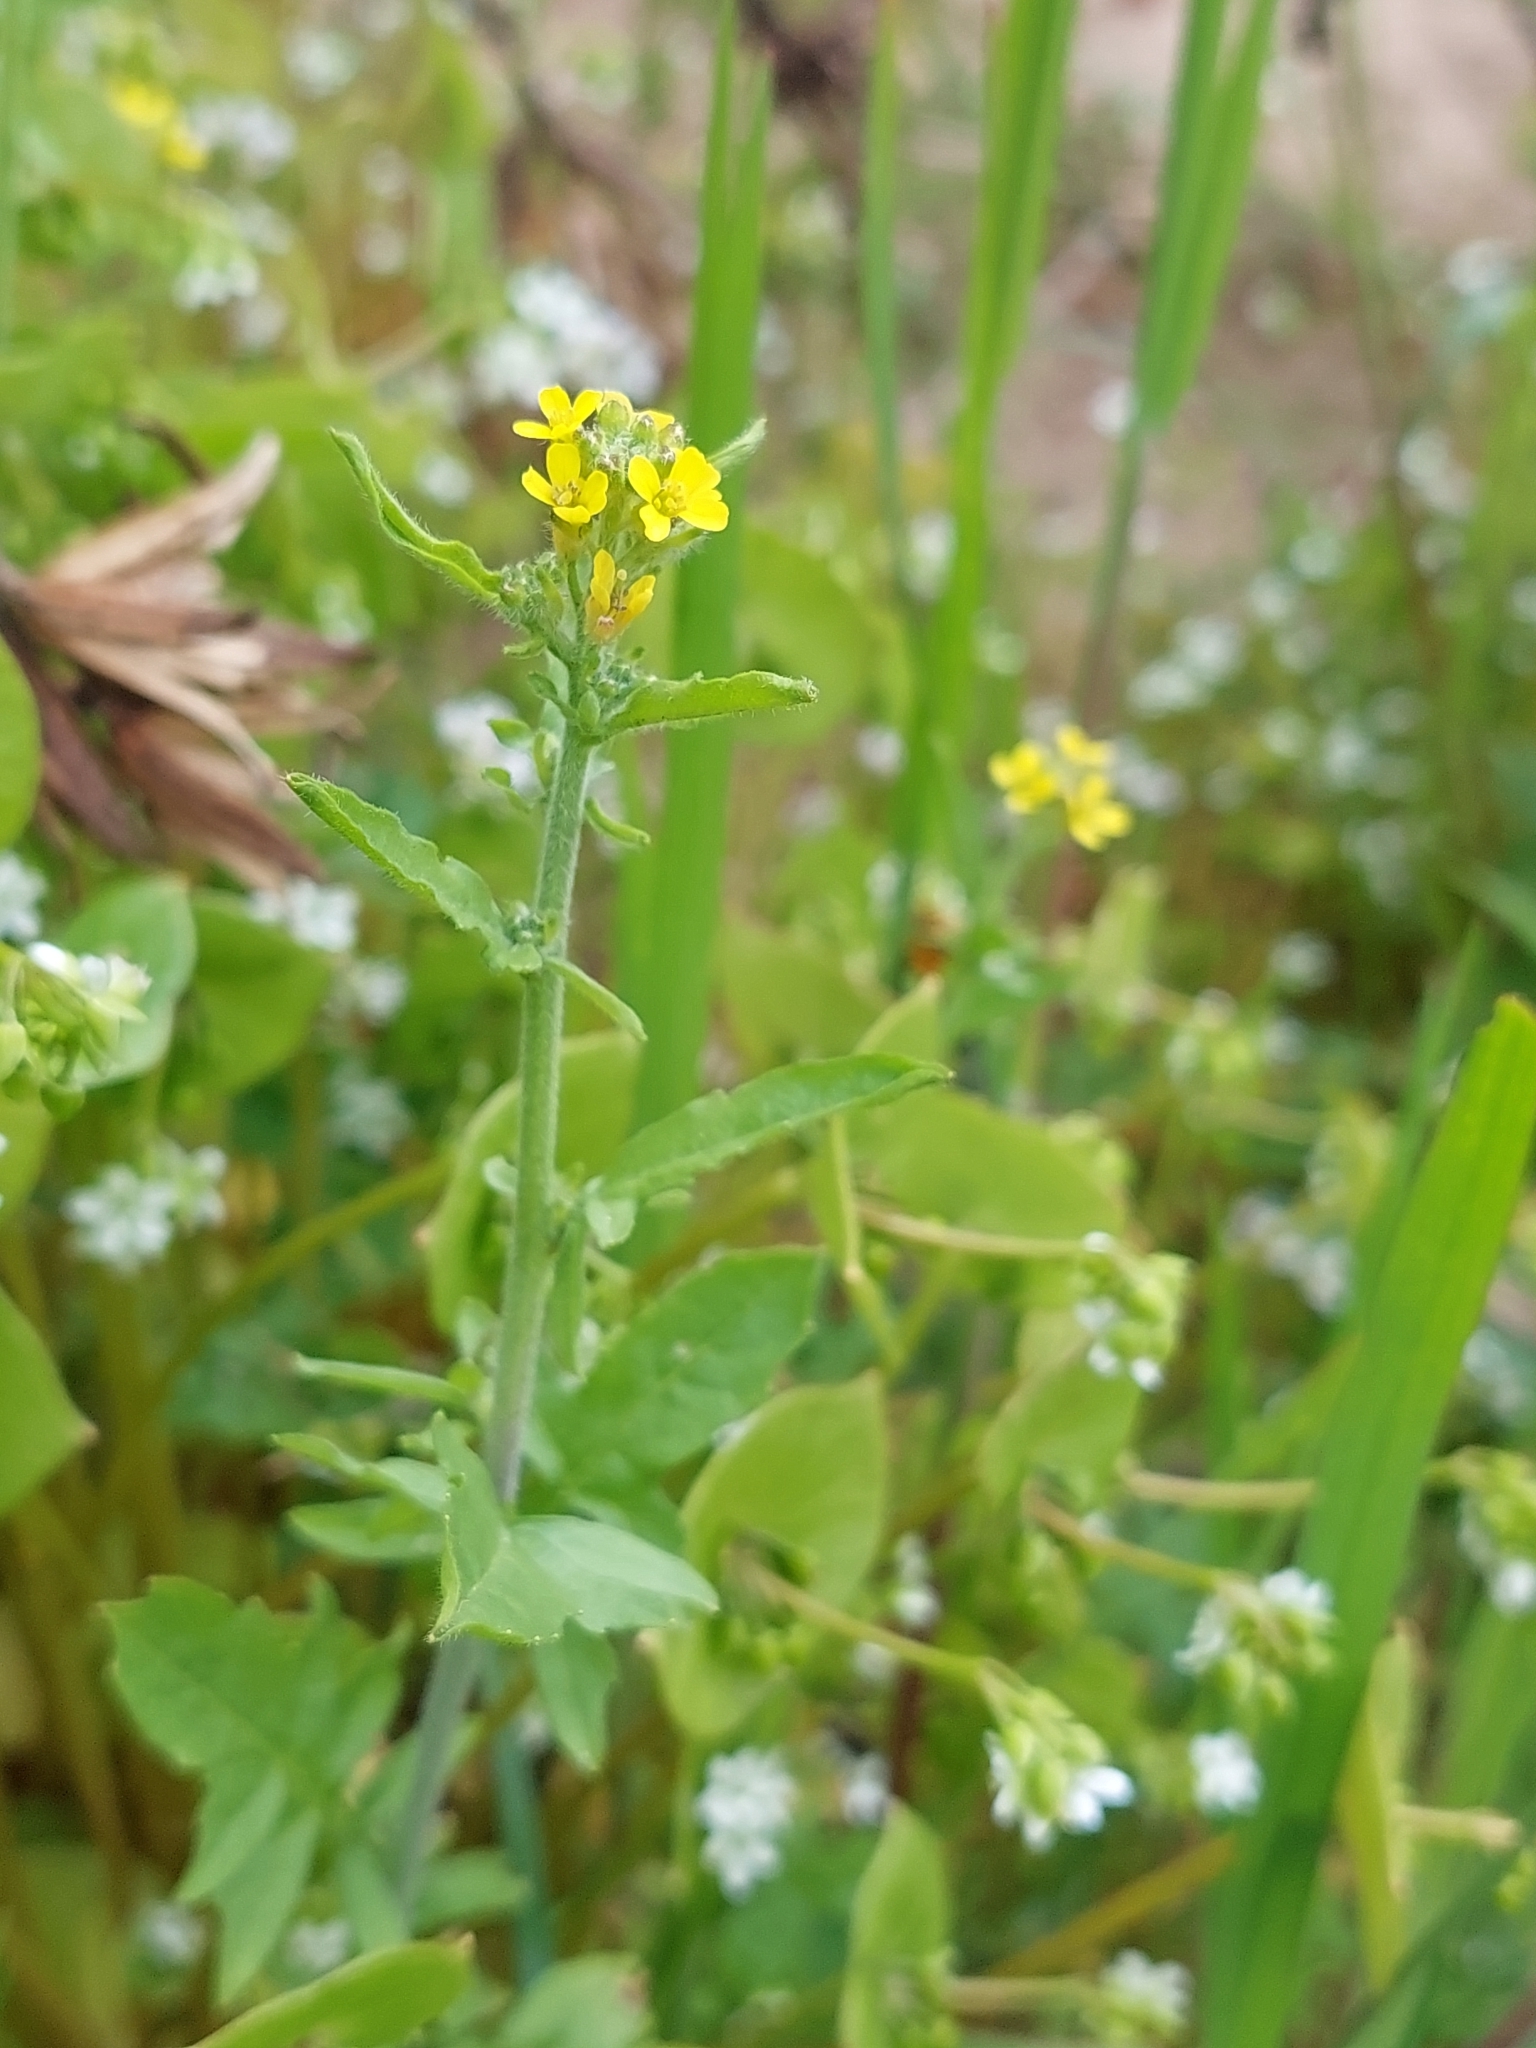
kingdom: Plantae
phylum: Tracheophyta
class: Magnoliopsida
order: Brassicales
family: Brassicaceae
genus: Sisymbrium
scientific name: Sisymbrium officinale
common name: Hedge mustard
